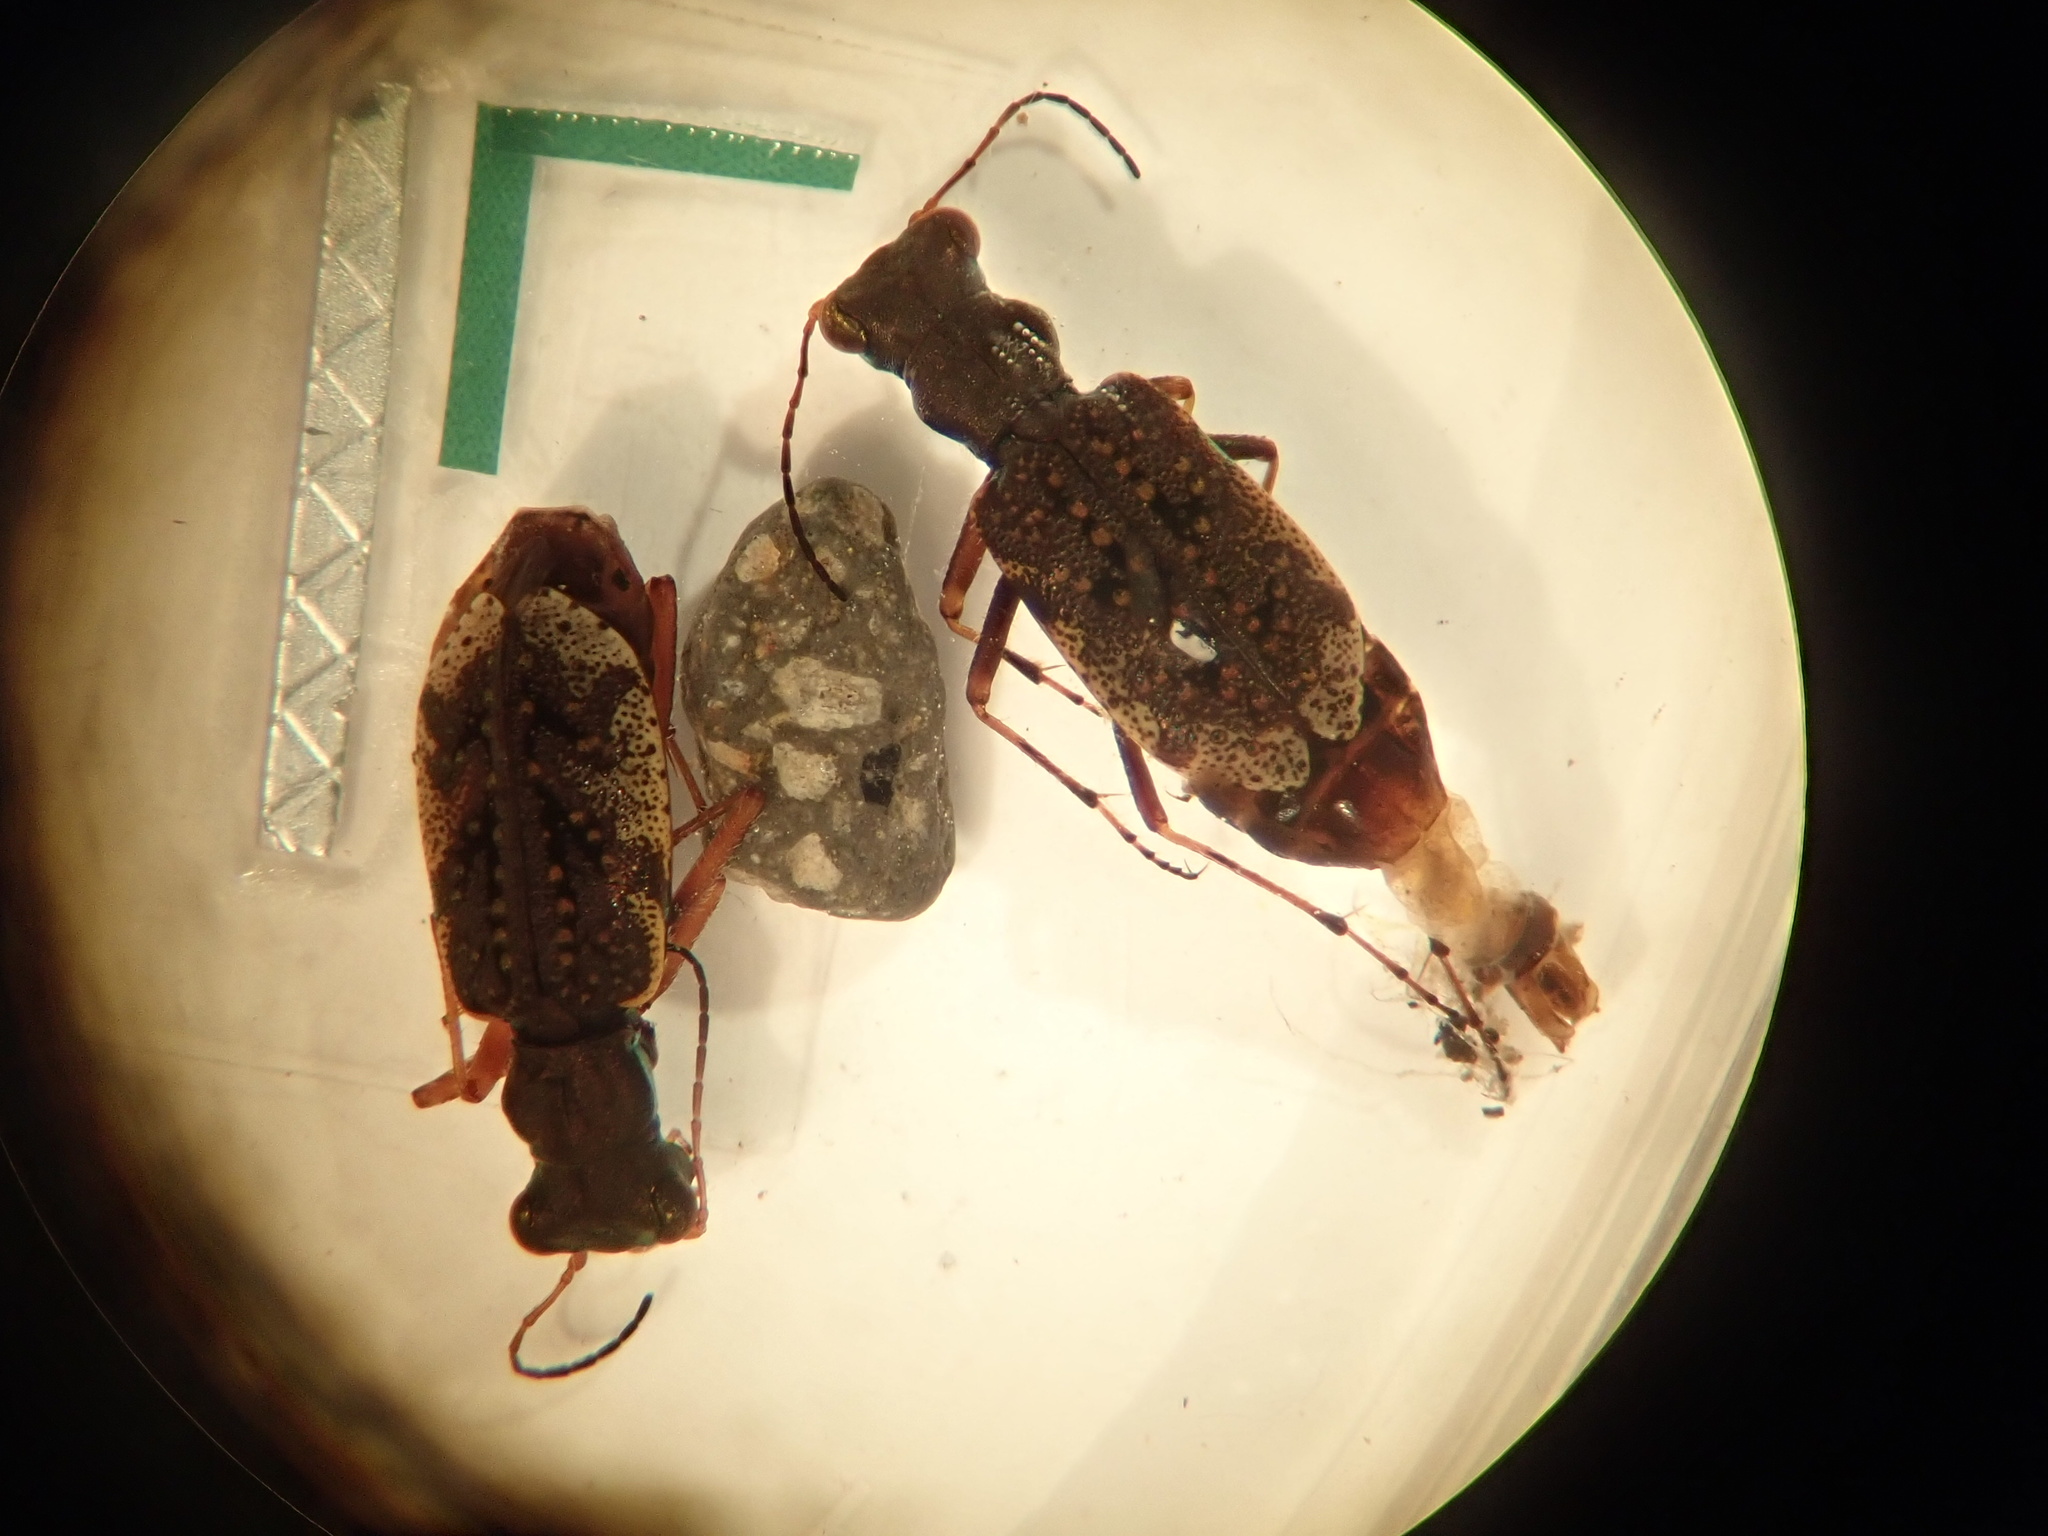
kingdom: Animalia
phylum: Arthropoda
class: Insecta
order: Coleoptera
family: Carabidae
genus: Neocicindela
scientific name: Neocicindela parryi
